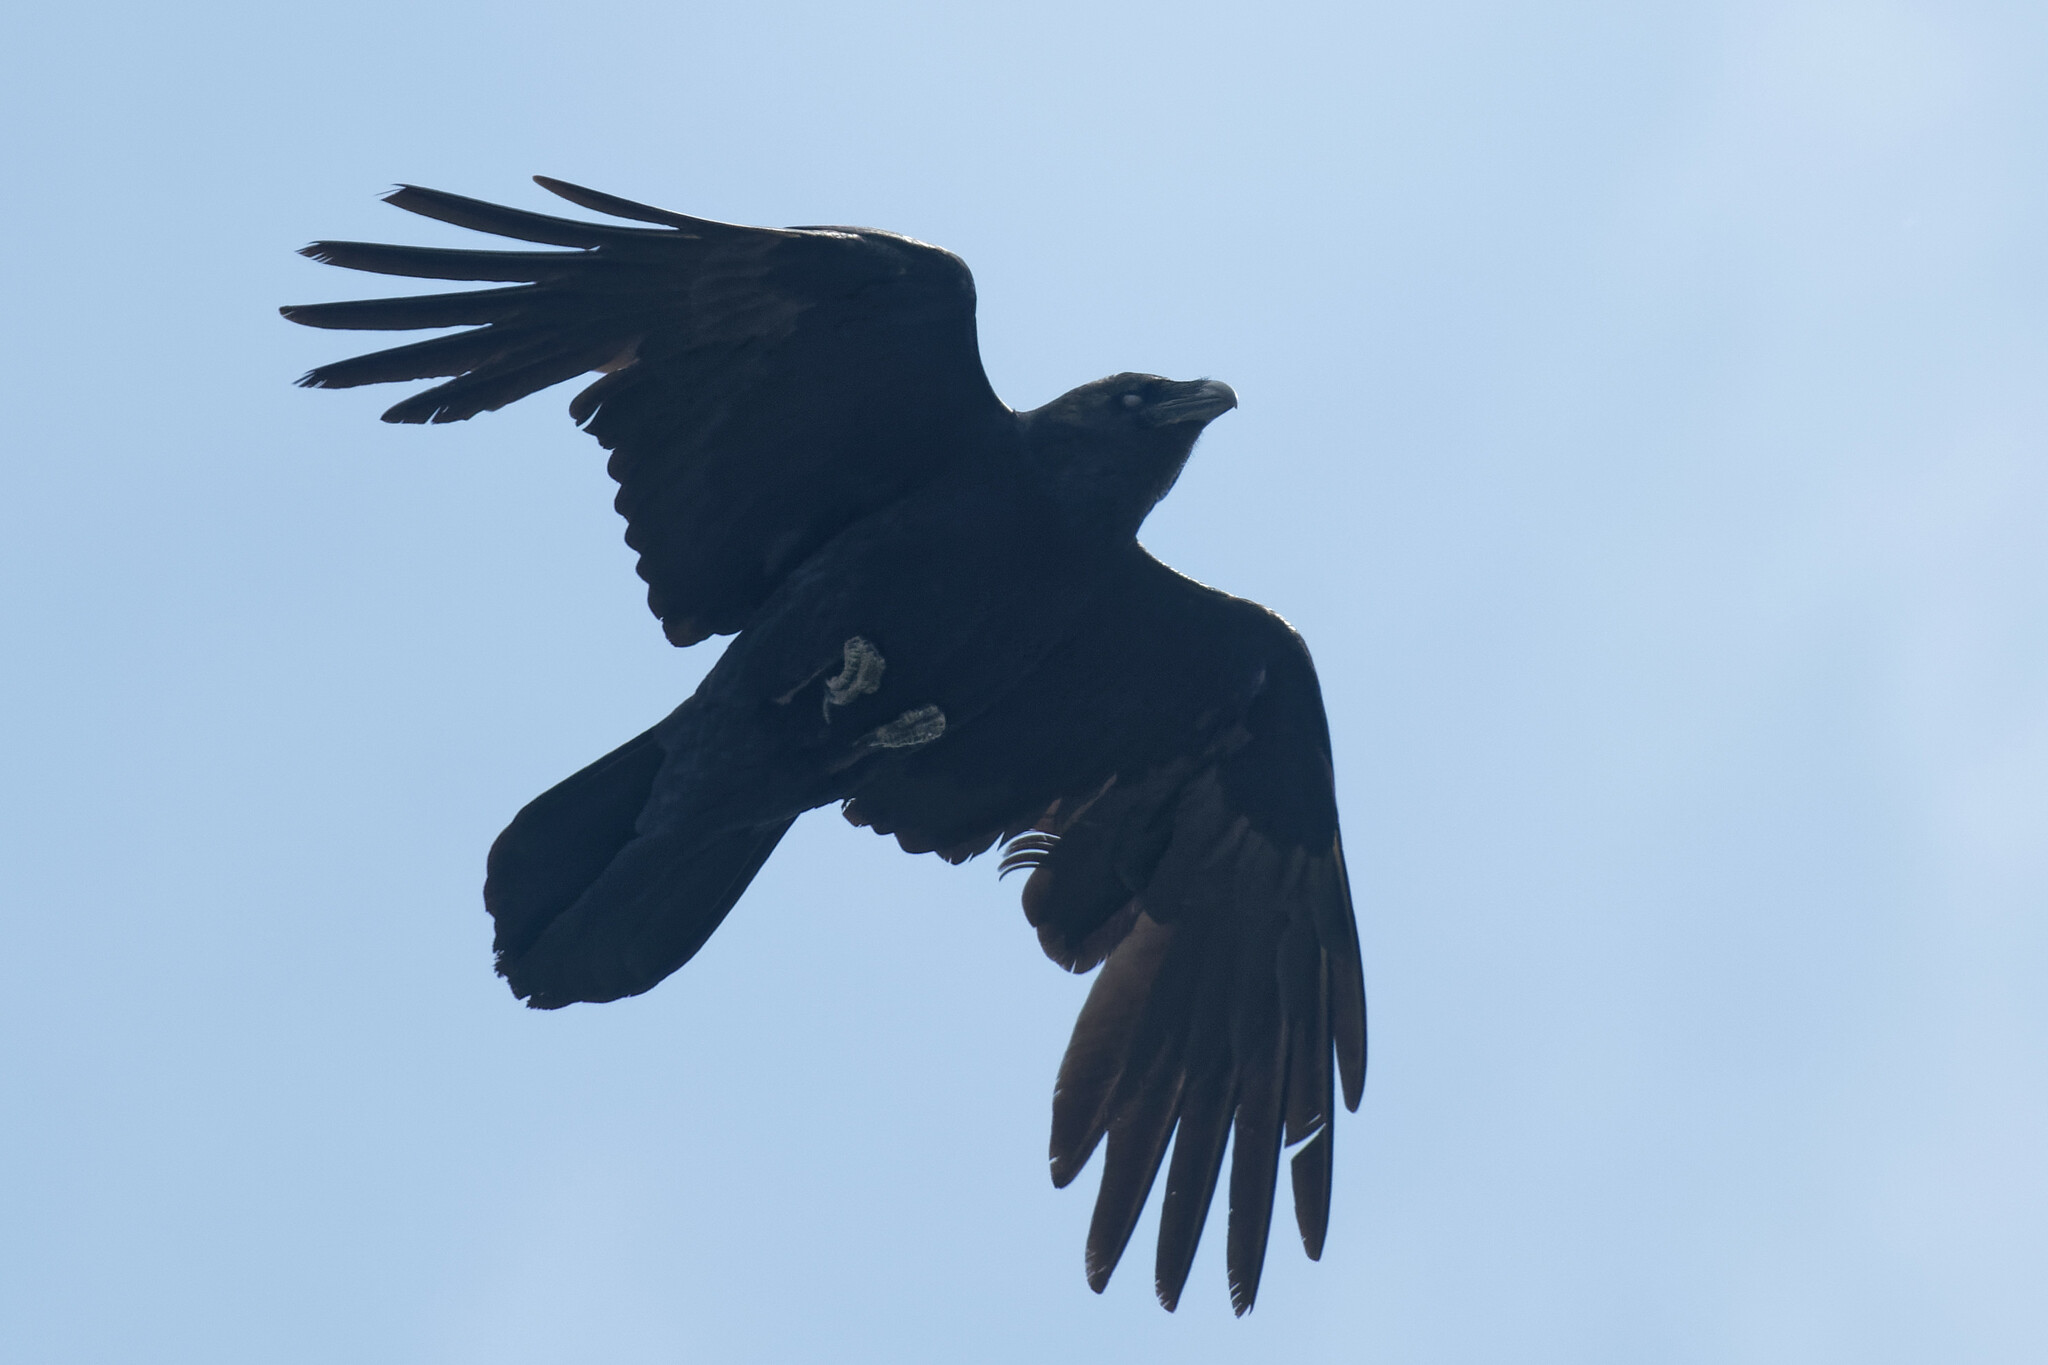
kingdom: Animalia
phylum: Chordata
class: Aves
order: Passeriformes
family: Corvidae
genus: Corvus
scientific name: Corvus corax
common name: Common raven
